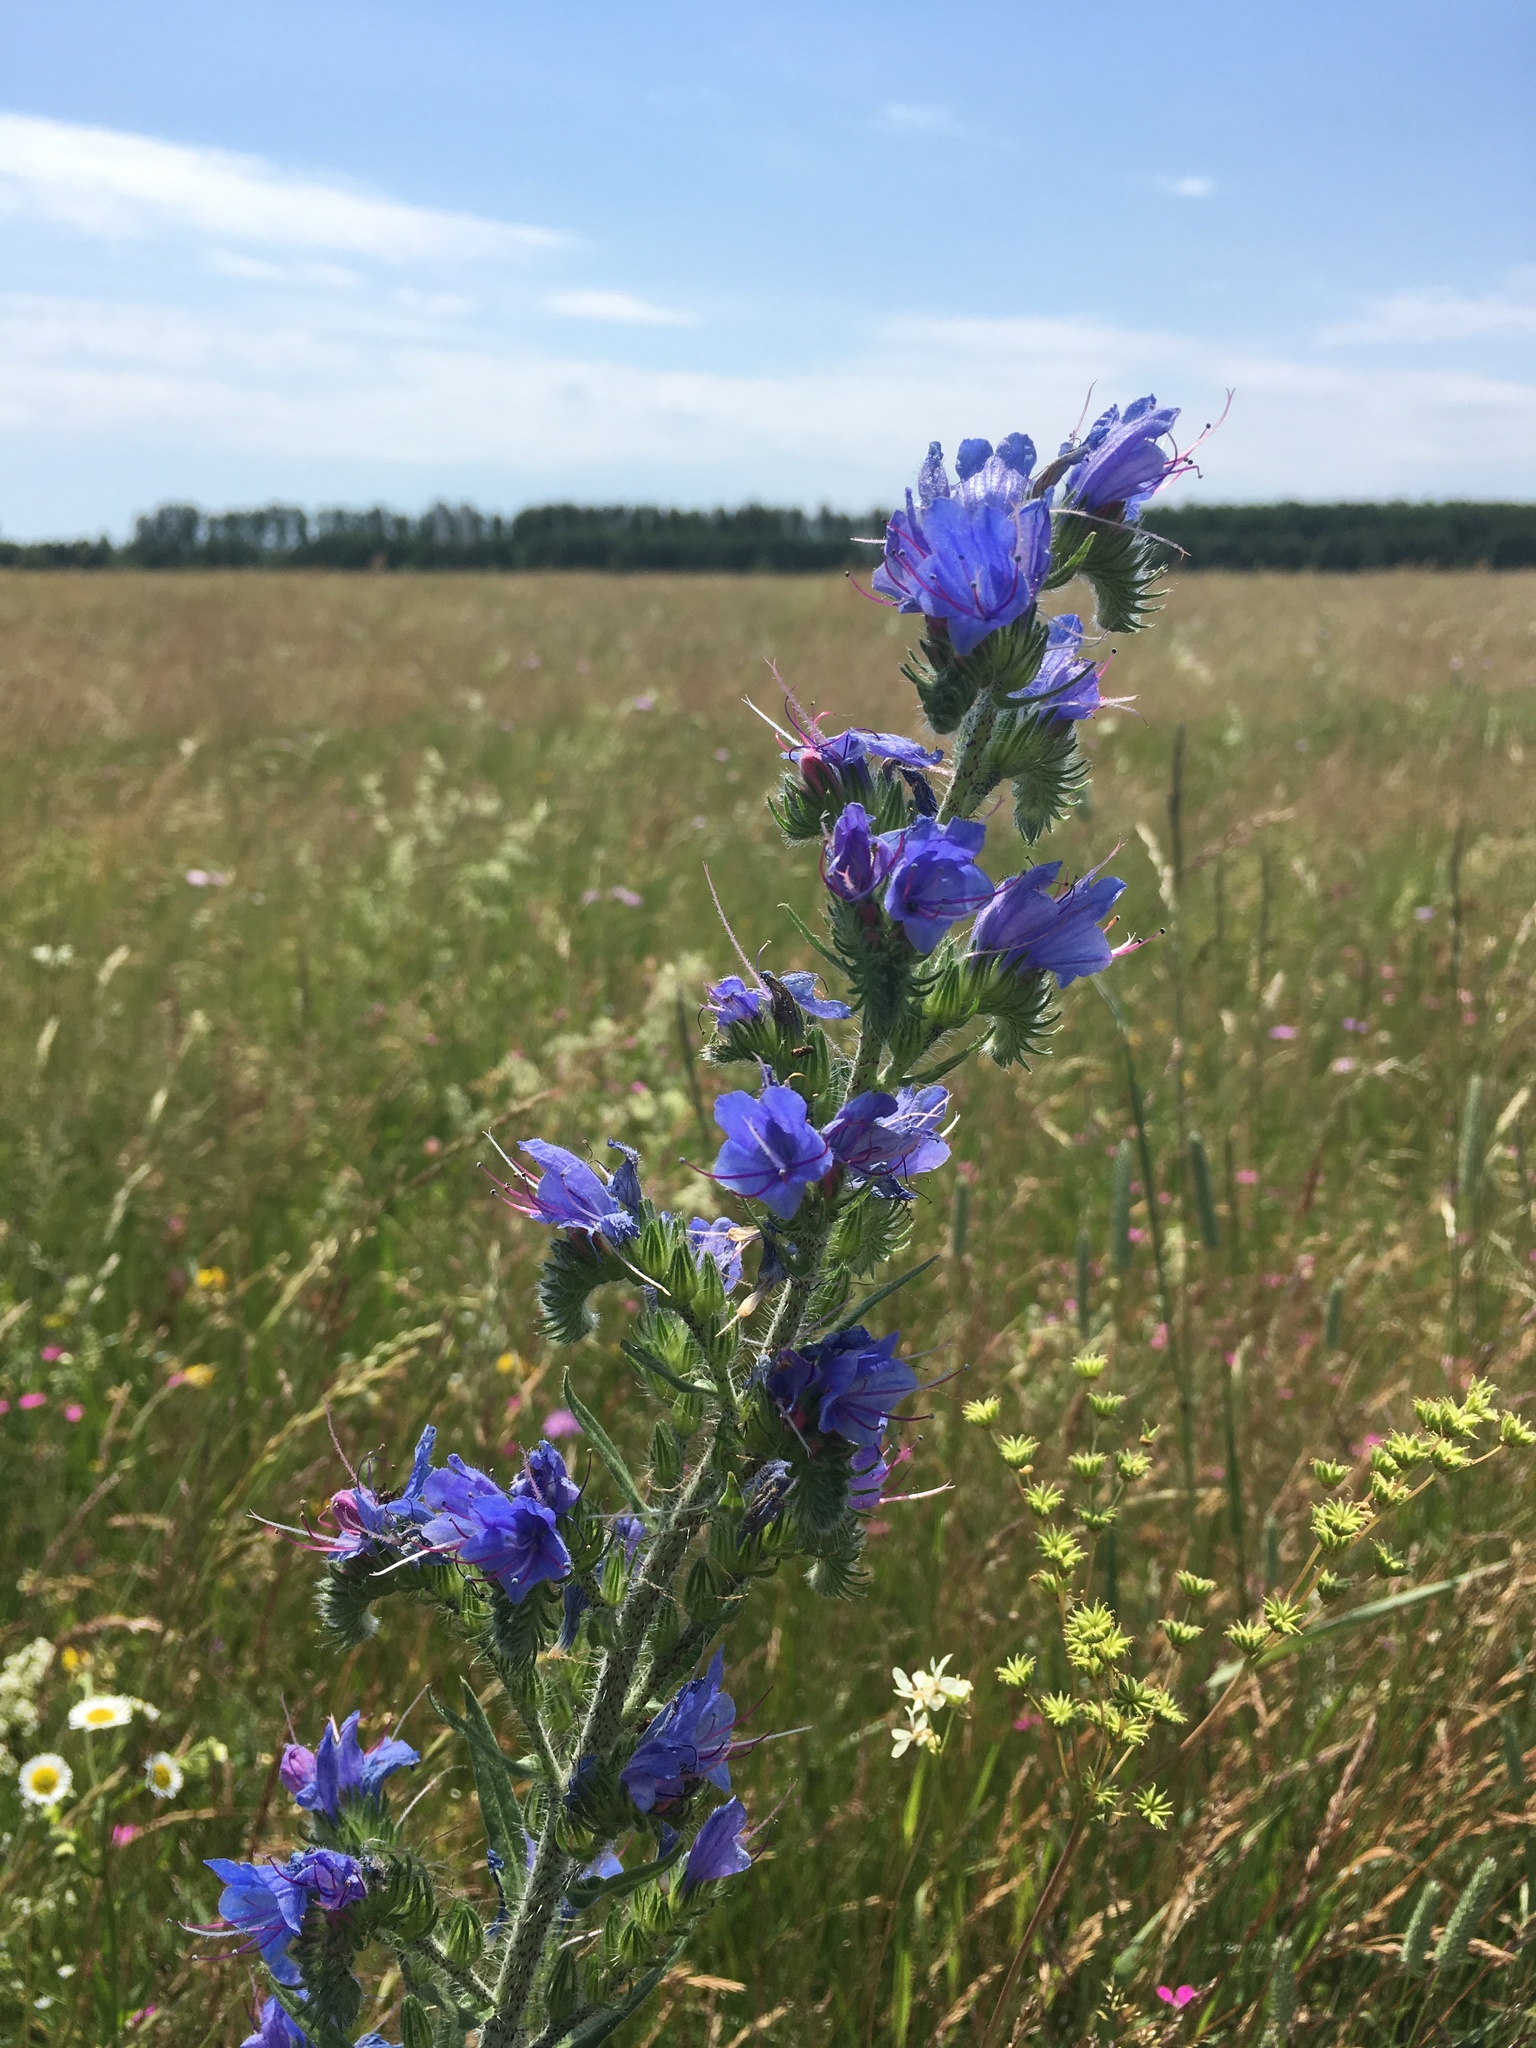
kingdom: Plantae
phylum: Tracheophyta
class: Magnoliopsida
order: Boraginales
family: Boraginaceae
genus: Echium
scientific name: Echium vulgare
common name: Common viper's bugloss
